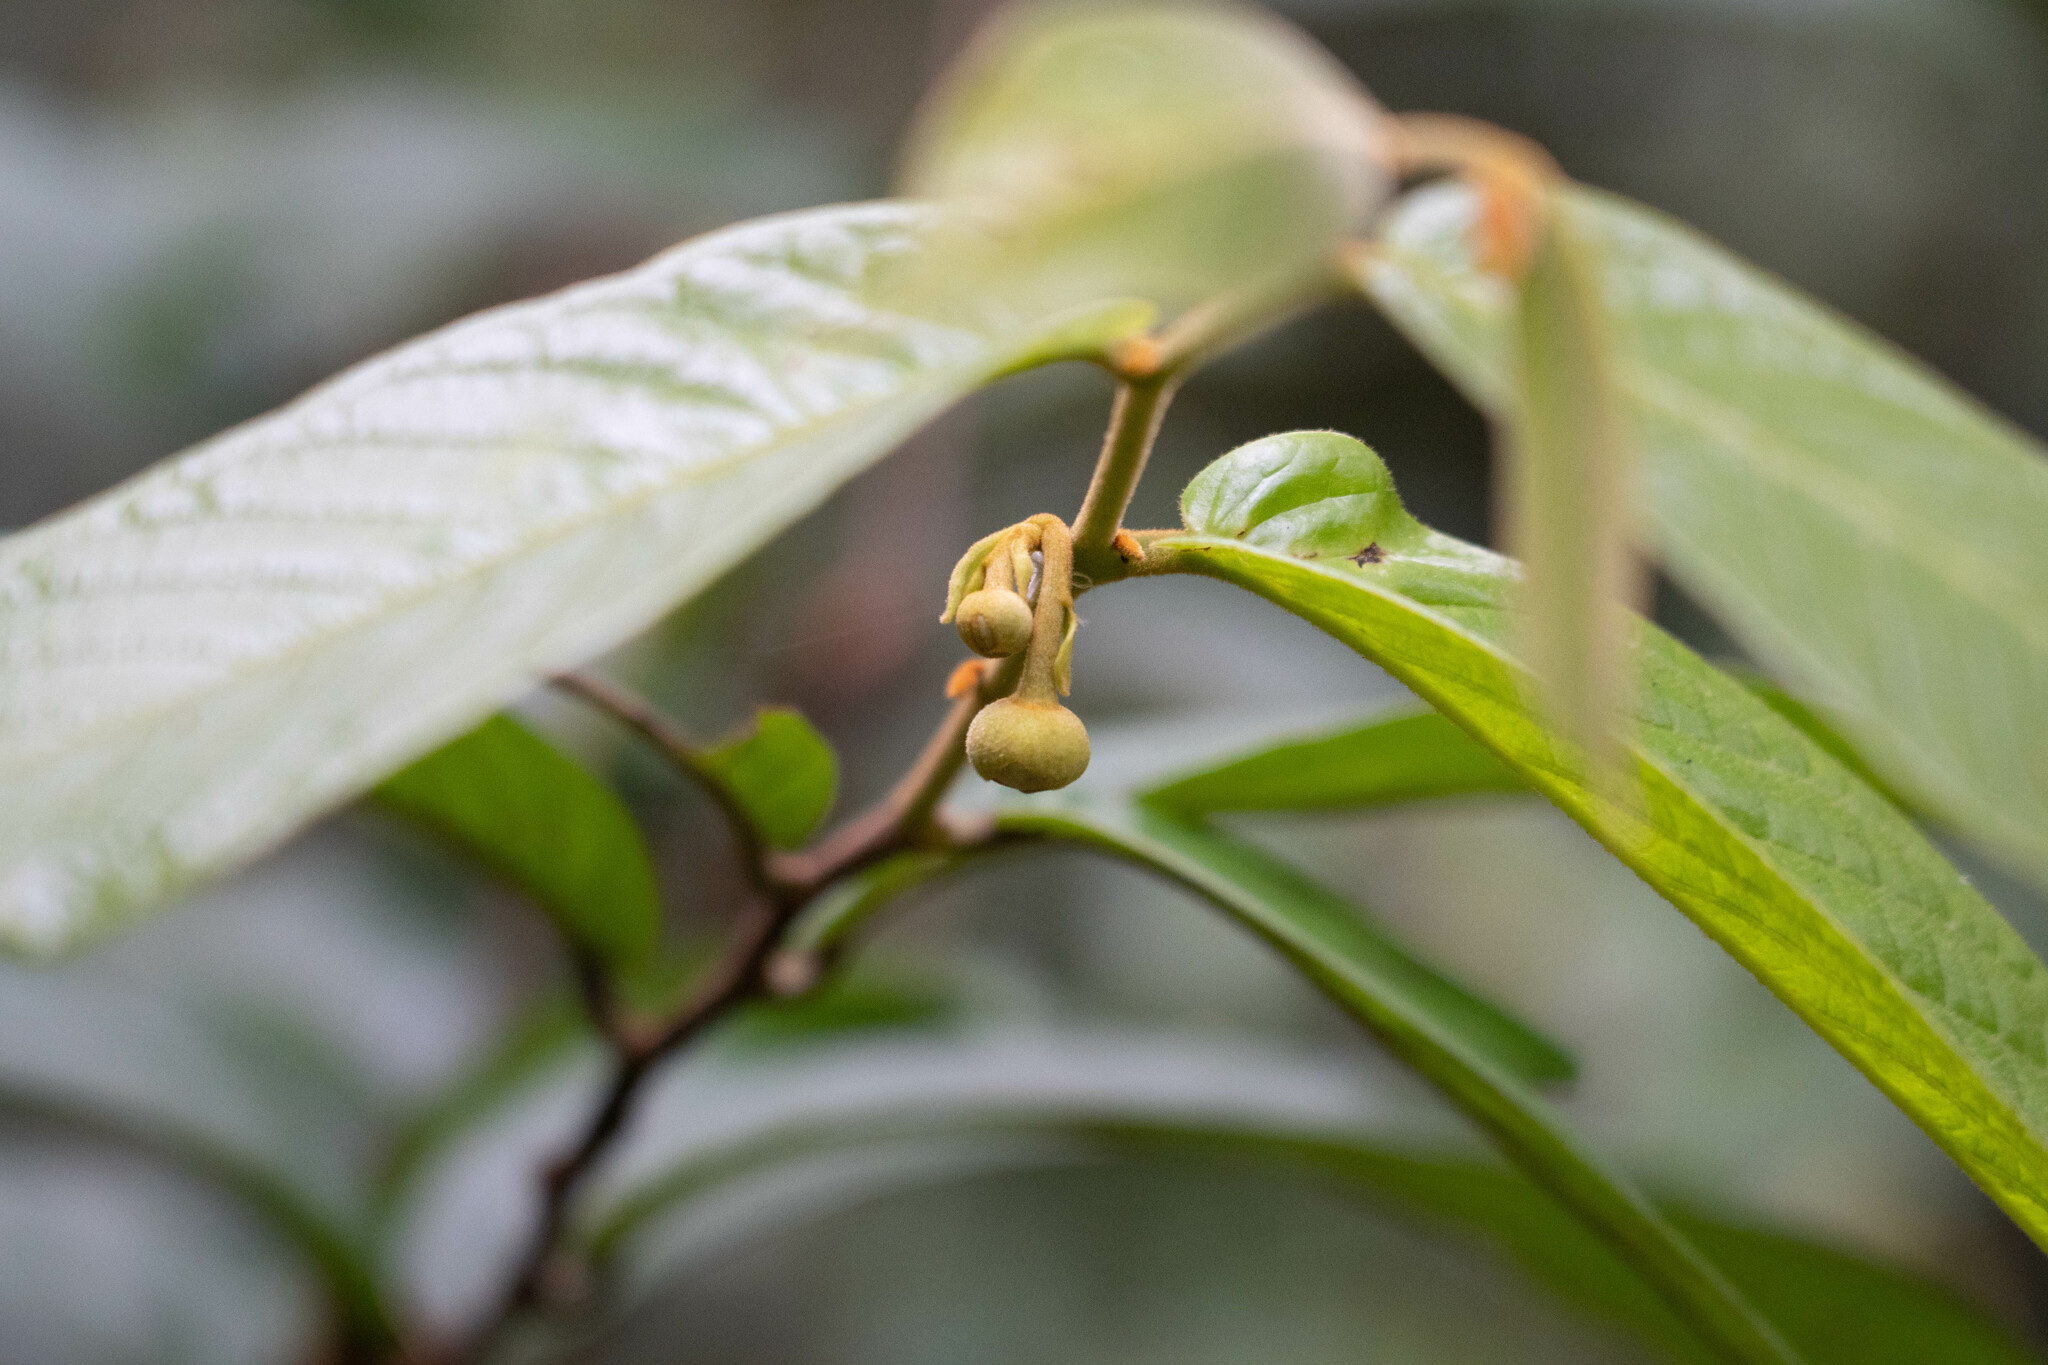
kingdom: Plantae
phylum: Tracheophyta
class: Magnoliopsida
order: Magnoliales
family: Annonaceae
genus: Uvaria
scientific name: Uvaria littoralis
